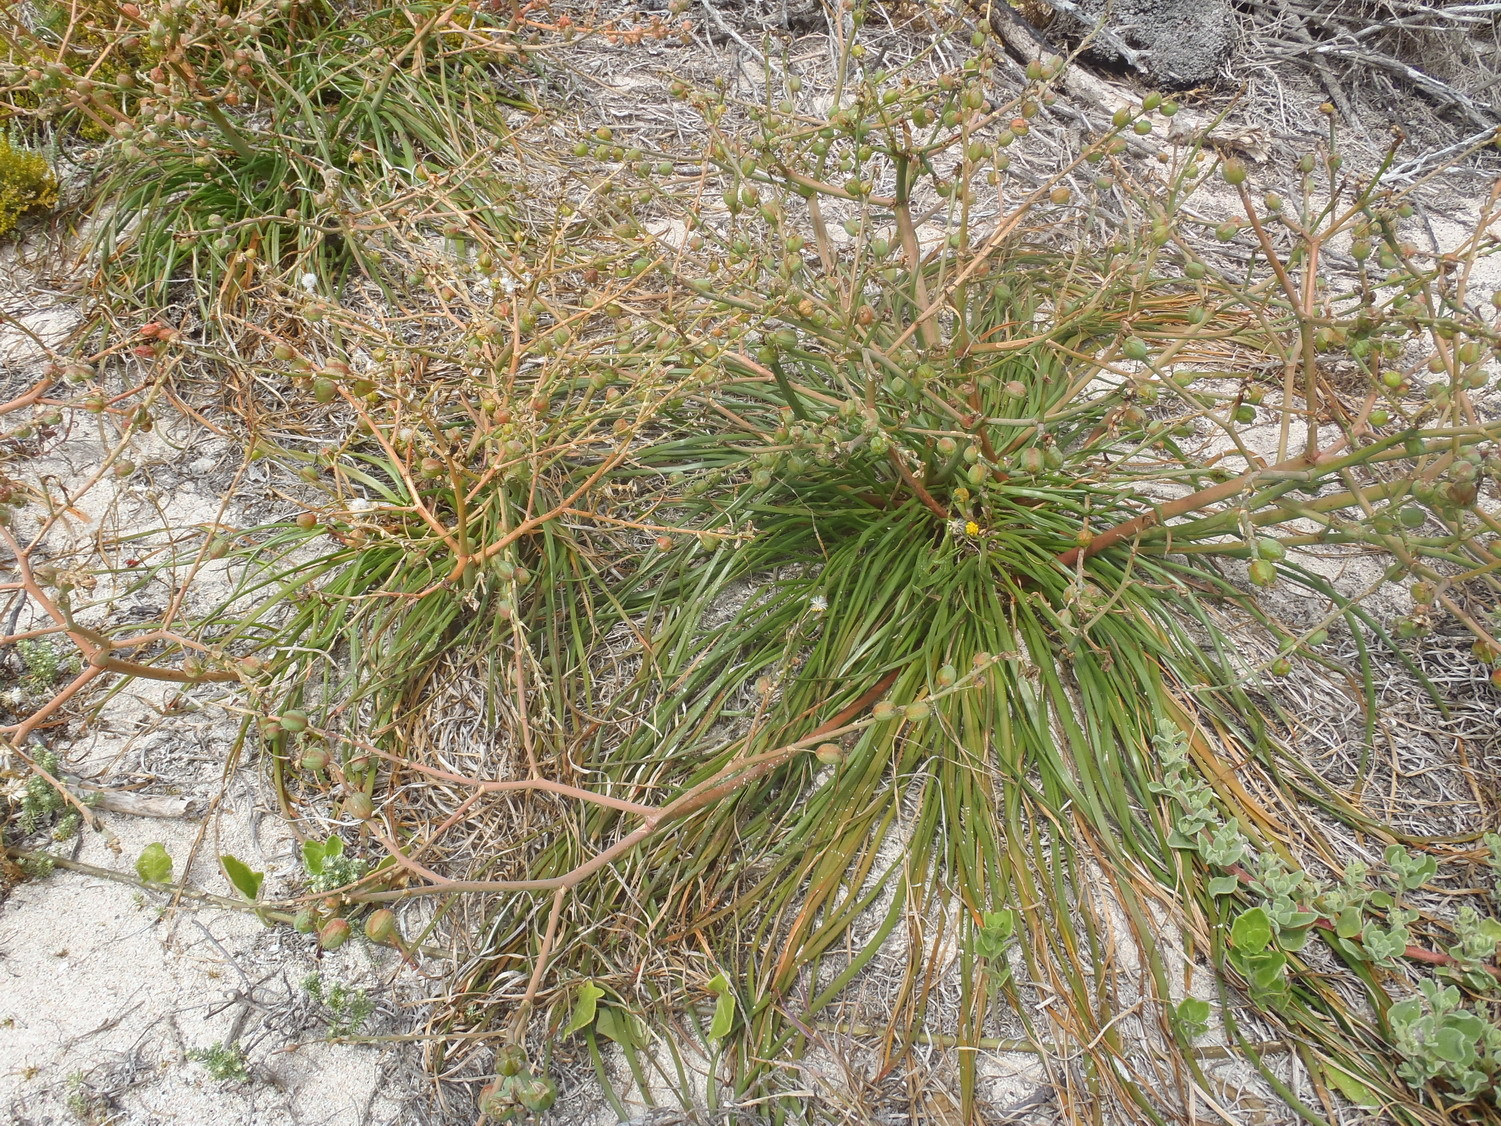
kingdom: Plantae
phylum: Tracheophyta
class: Liliopsida
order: Asparagales
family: Asphodelaceae
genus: Trachyandra
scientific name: Trachyandra divaricata
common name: Dune onionweed
